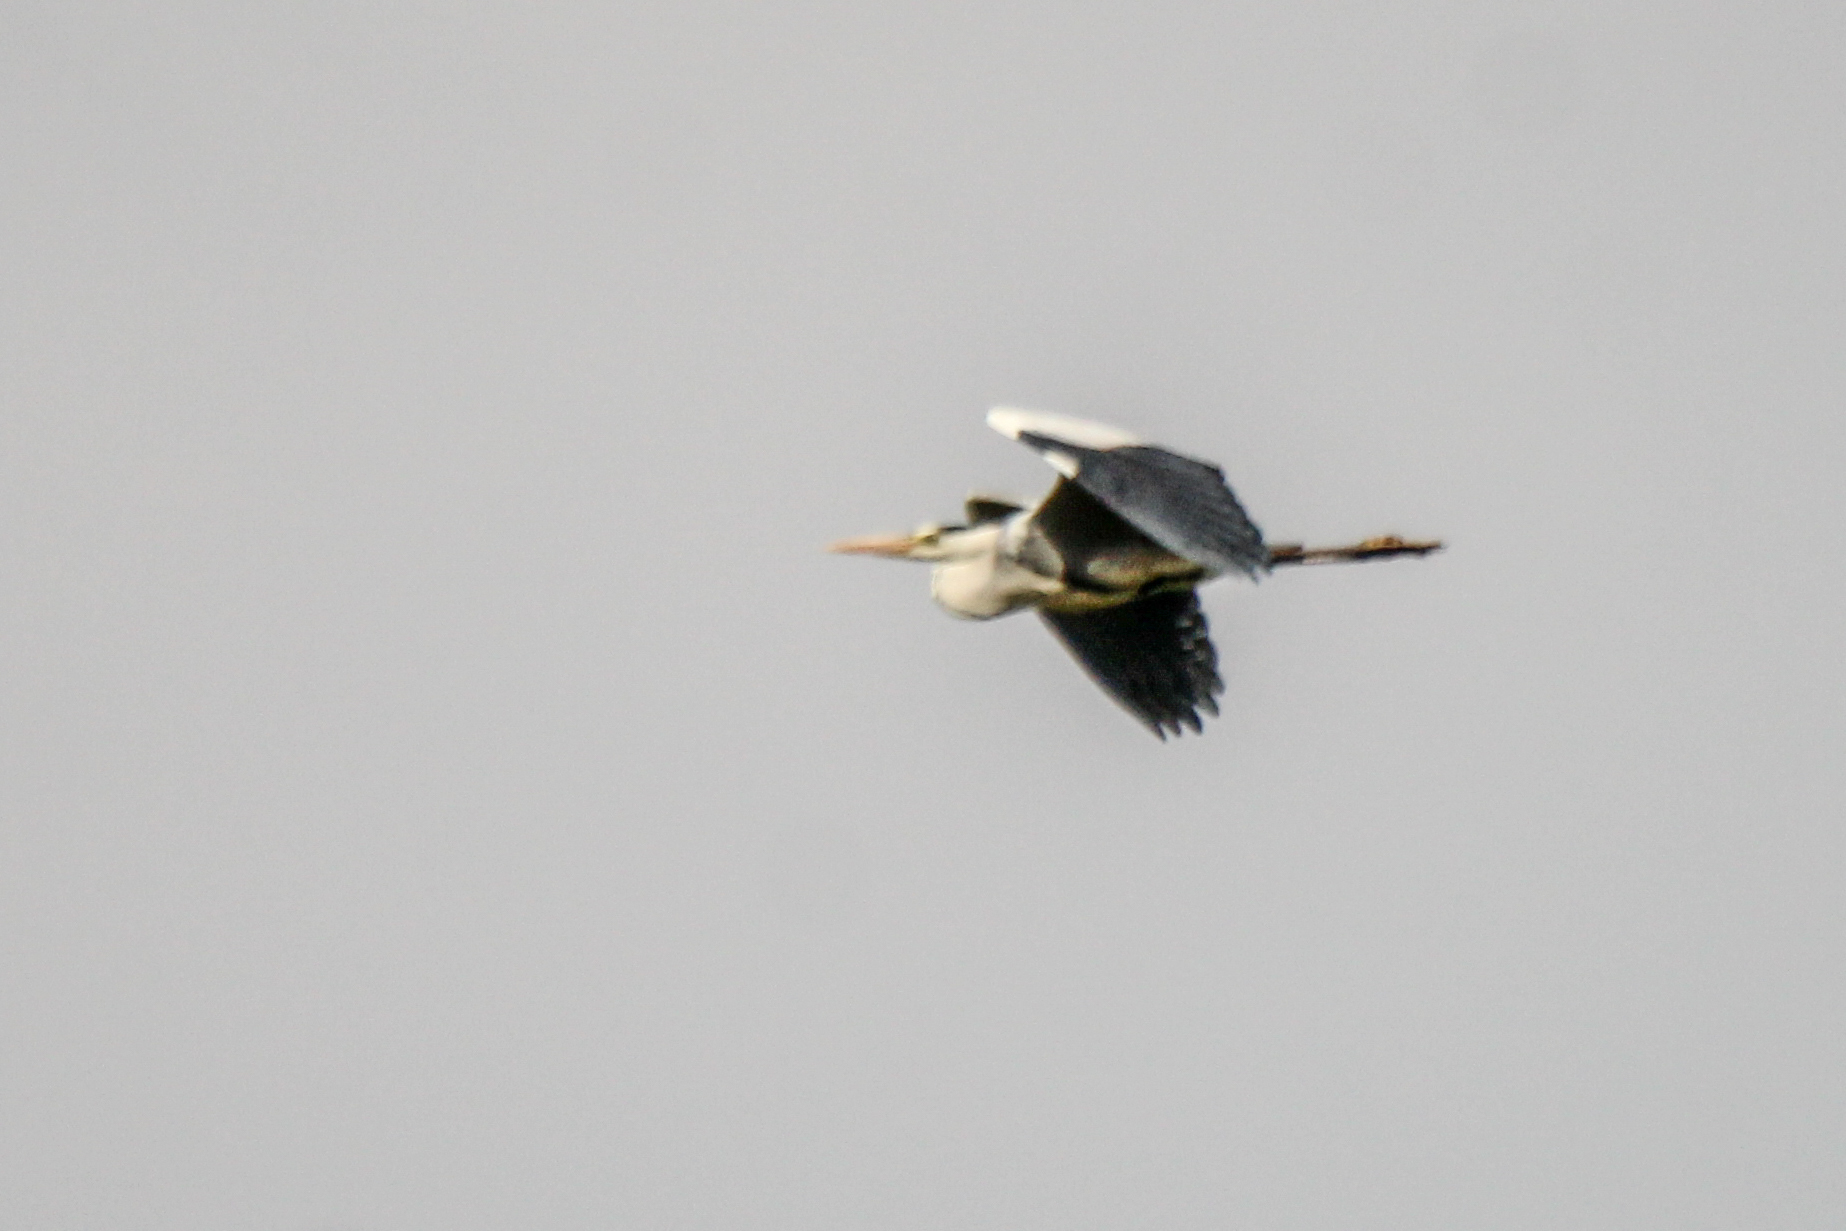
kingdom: Animalia
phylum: Chordata
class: Aves
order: Pelecaniformes
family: Ardeidae
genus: Ardea
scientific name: Ardea cinerea
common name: Grey heron
